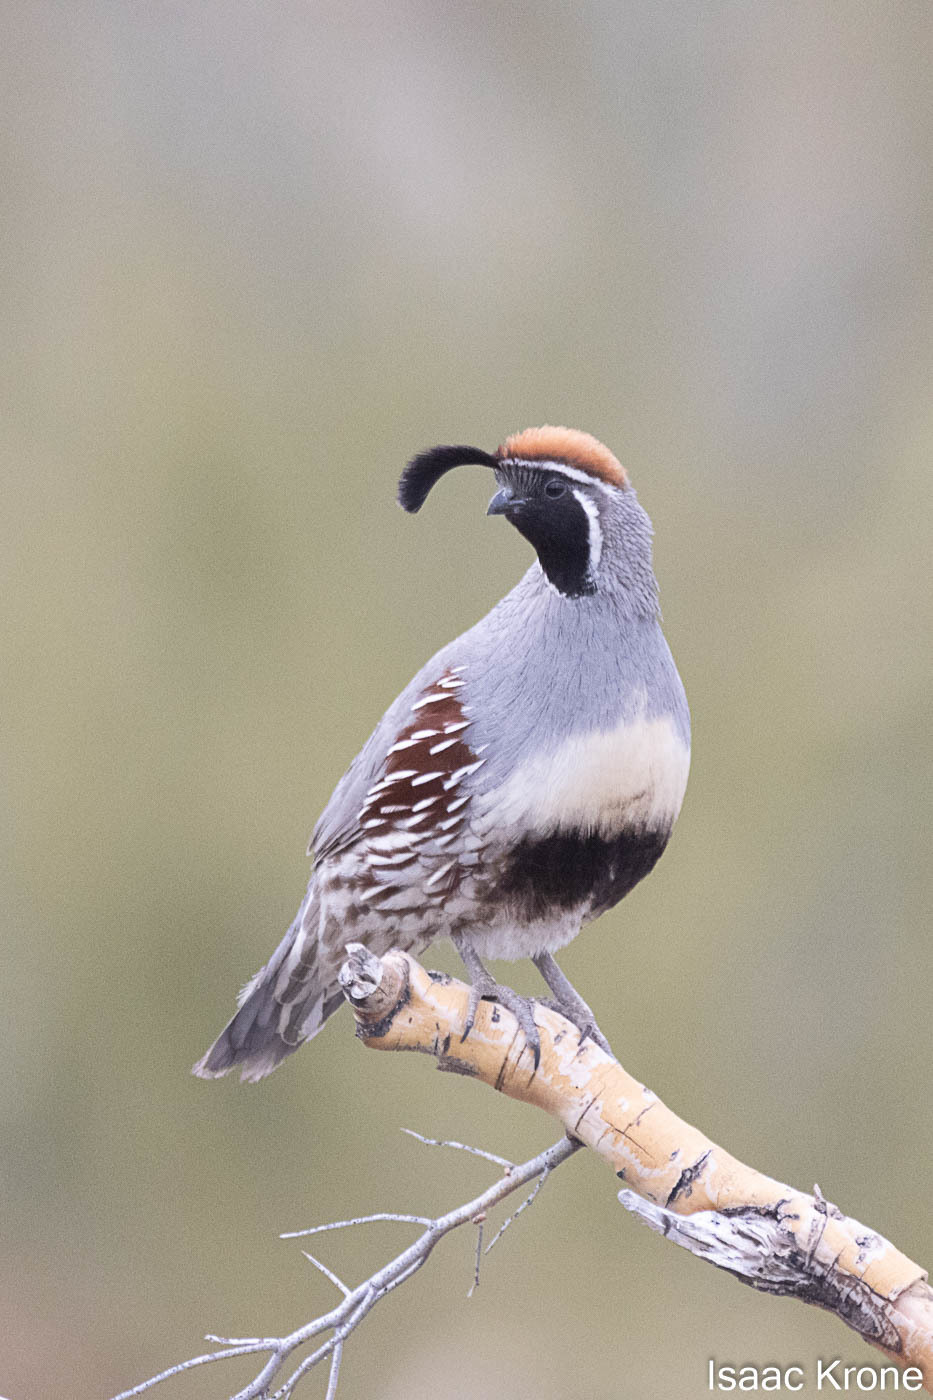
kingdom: Animalia
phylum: Chordata
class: Aves
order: Galliformes
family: Odontophoridae
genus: Callipepla
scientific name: Callipepla gambelii
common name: Gambel's quail
